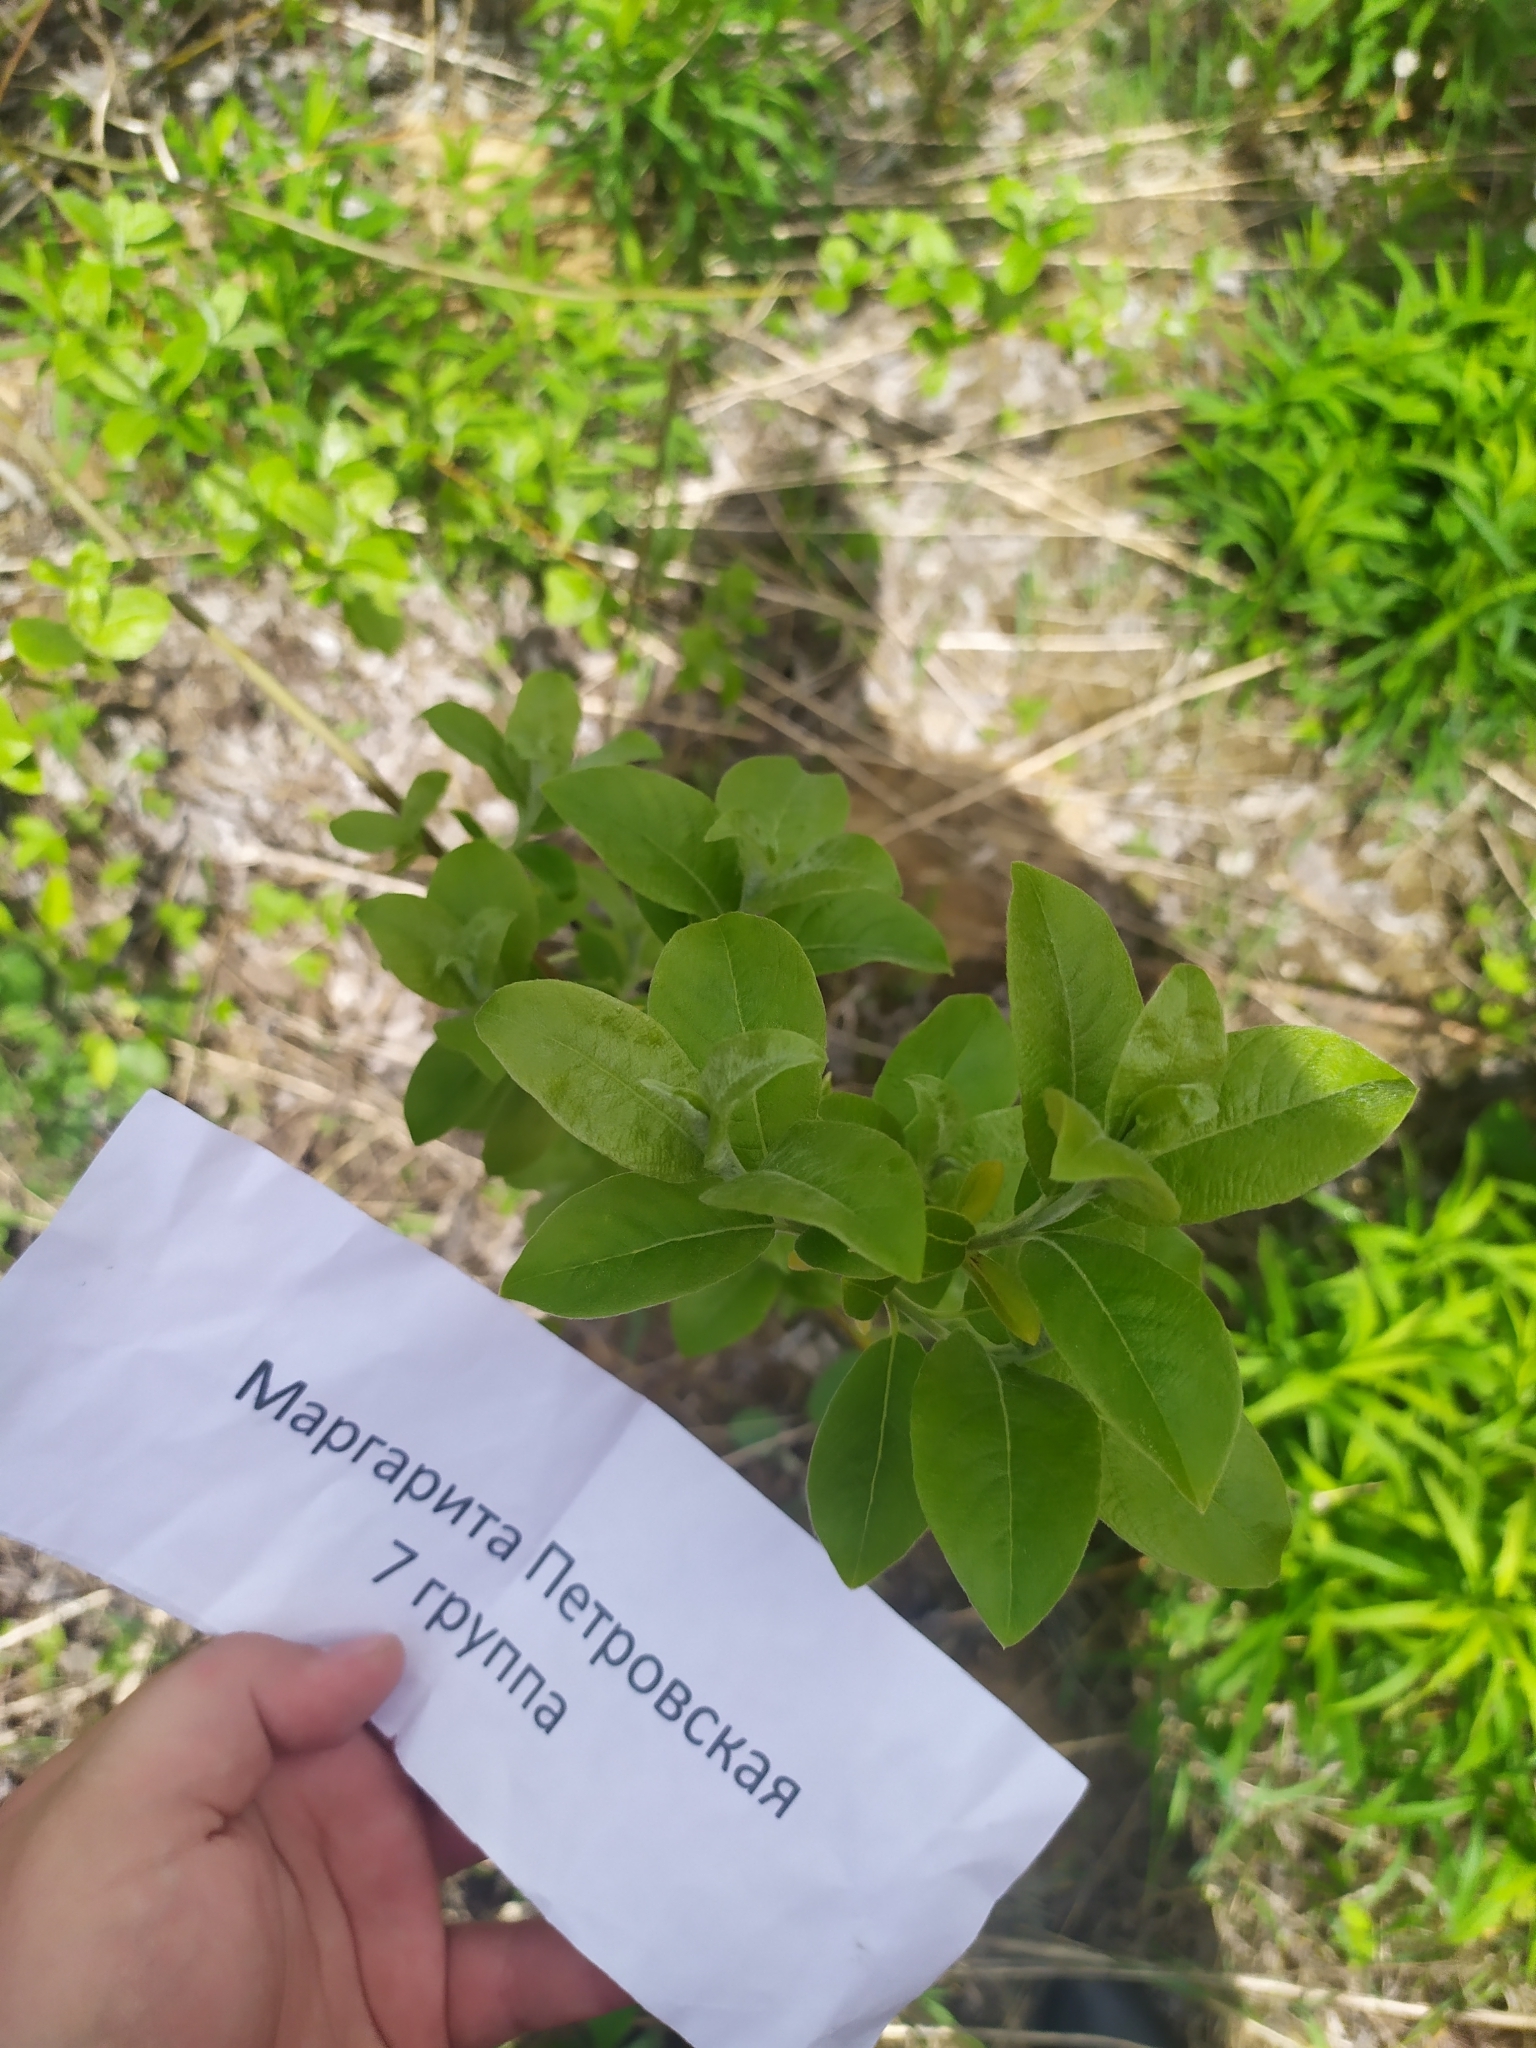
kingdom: Plantae
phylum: Tracheophyta
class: Magnoliopsida
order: Malpighiales
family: Salicaceae
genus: Salix
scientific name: Salix caprea
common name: Goat willow
